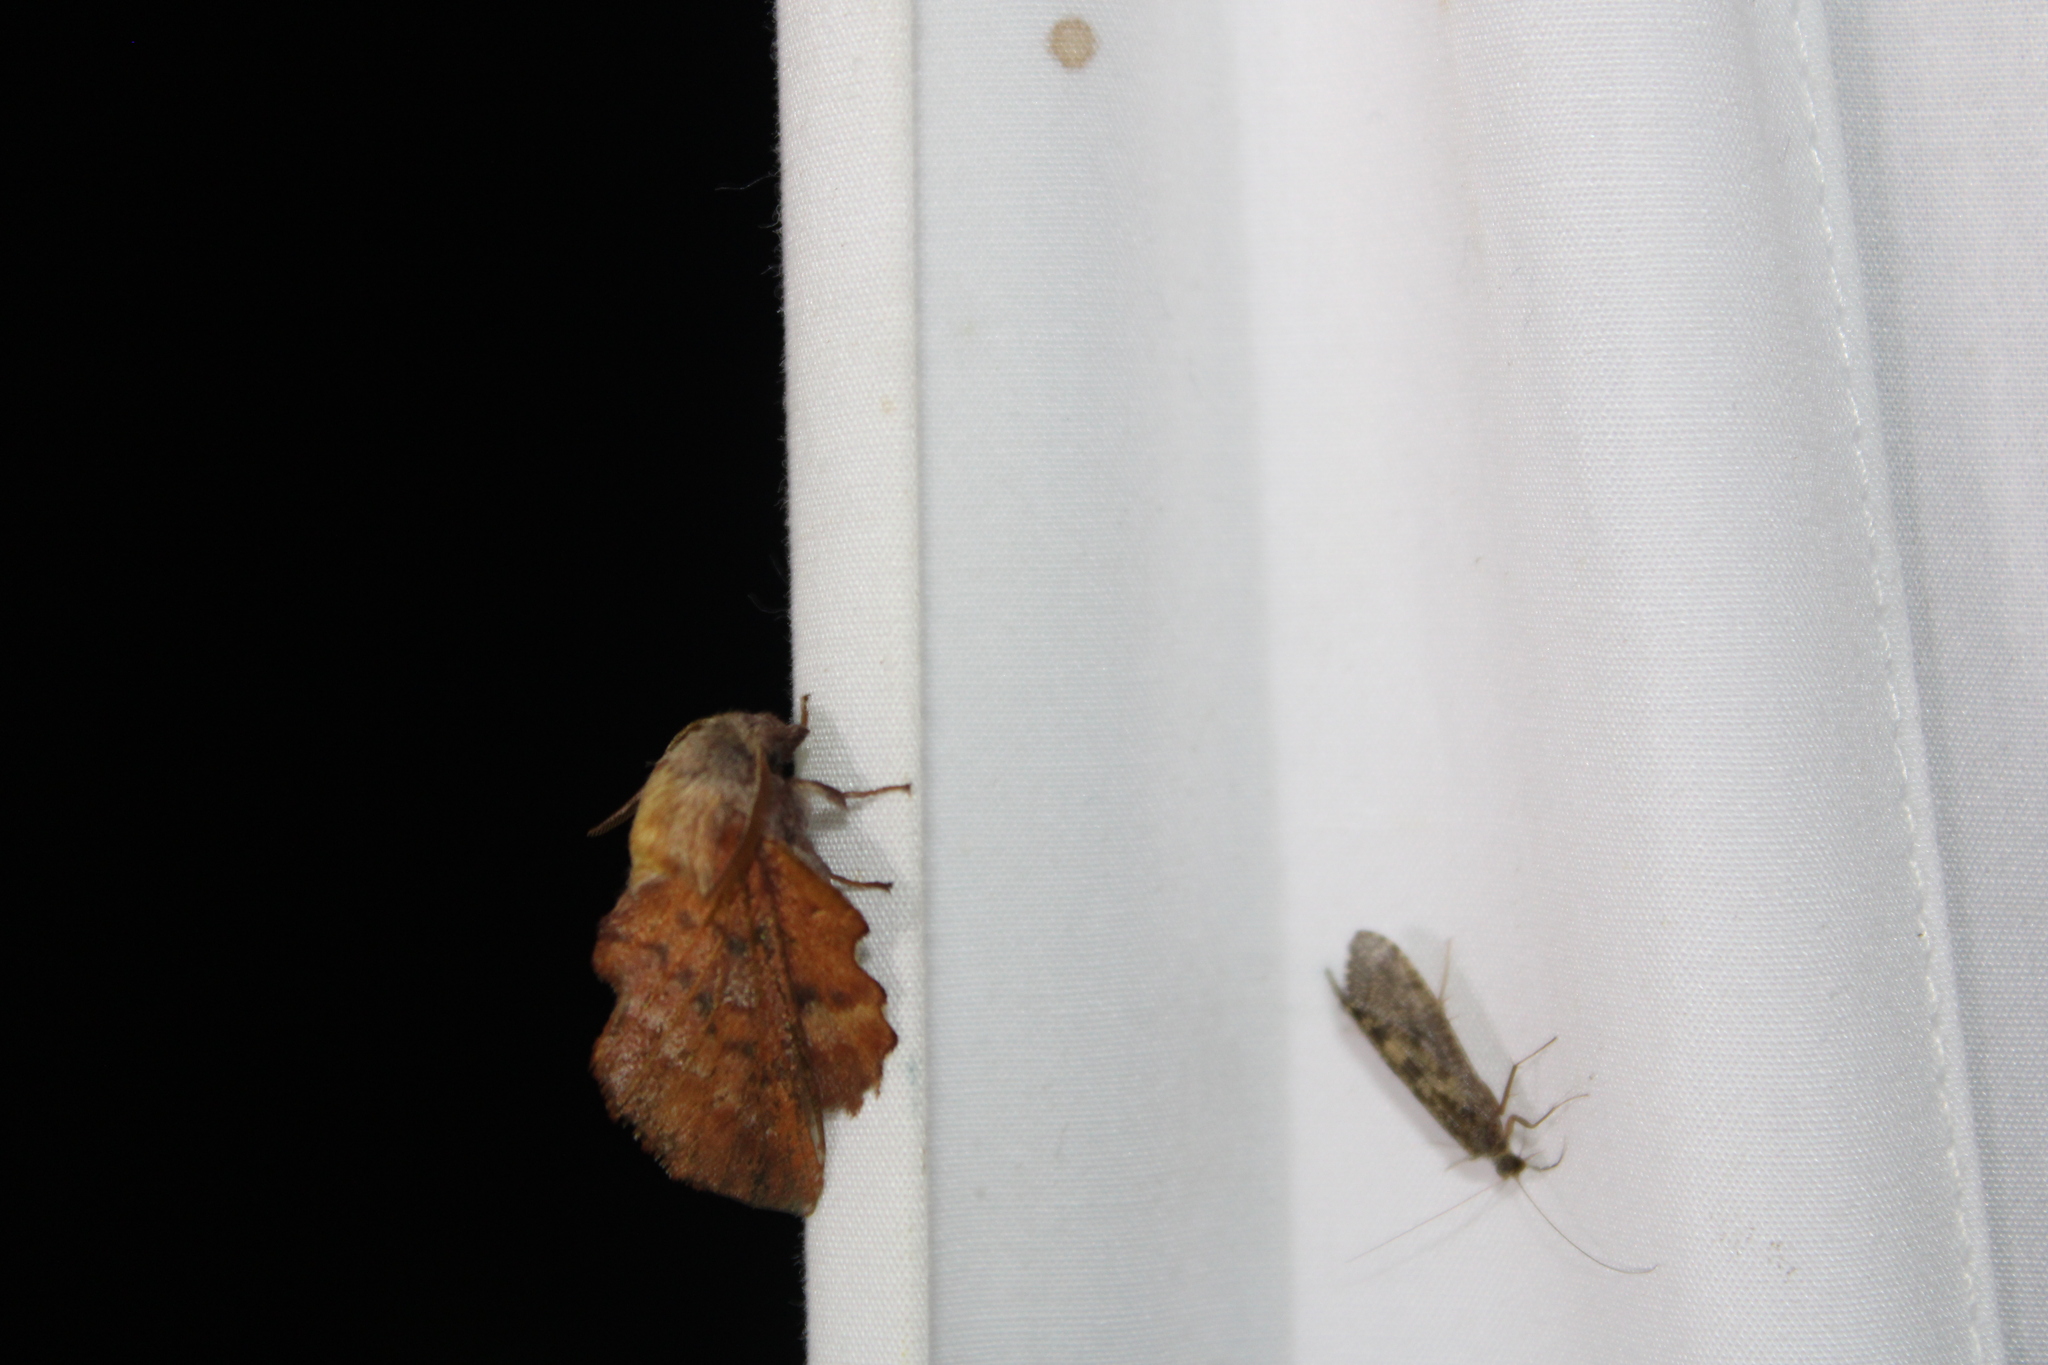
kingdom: Animalia
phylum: Arthropoda
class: Insecta
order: Lepidoptera
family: Lasiocampidae
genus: Phyllodesma
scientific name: Phyllodesma americana
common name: American lappet moth
